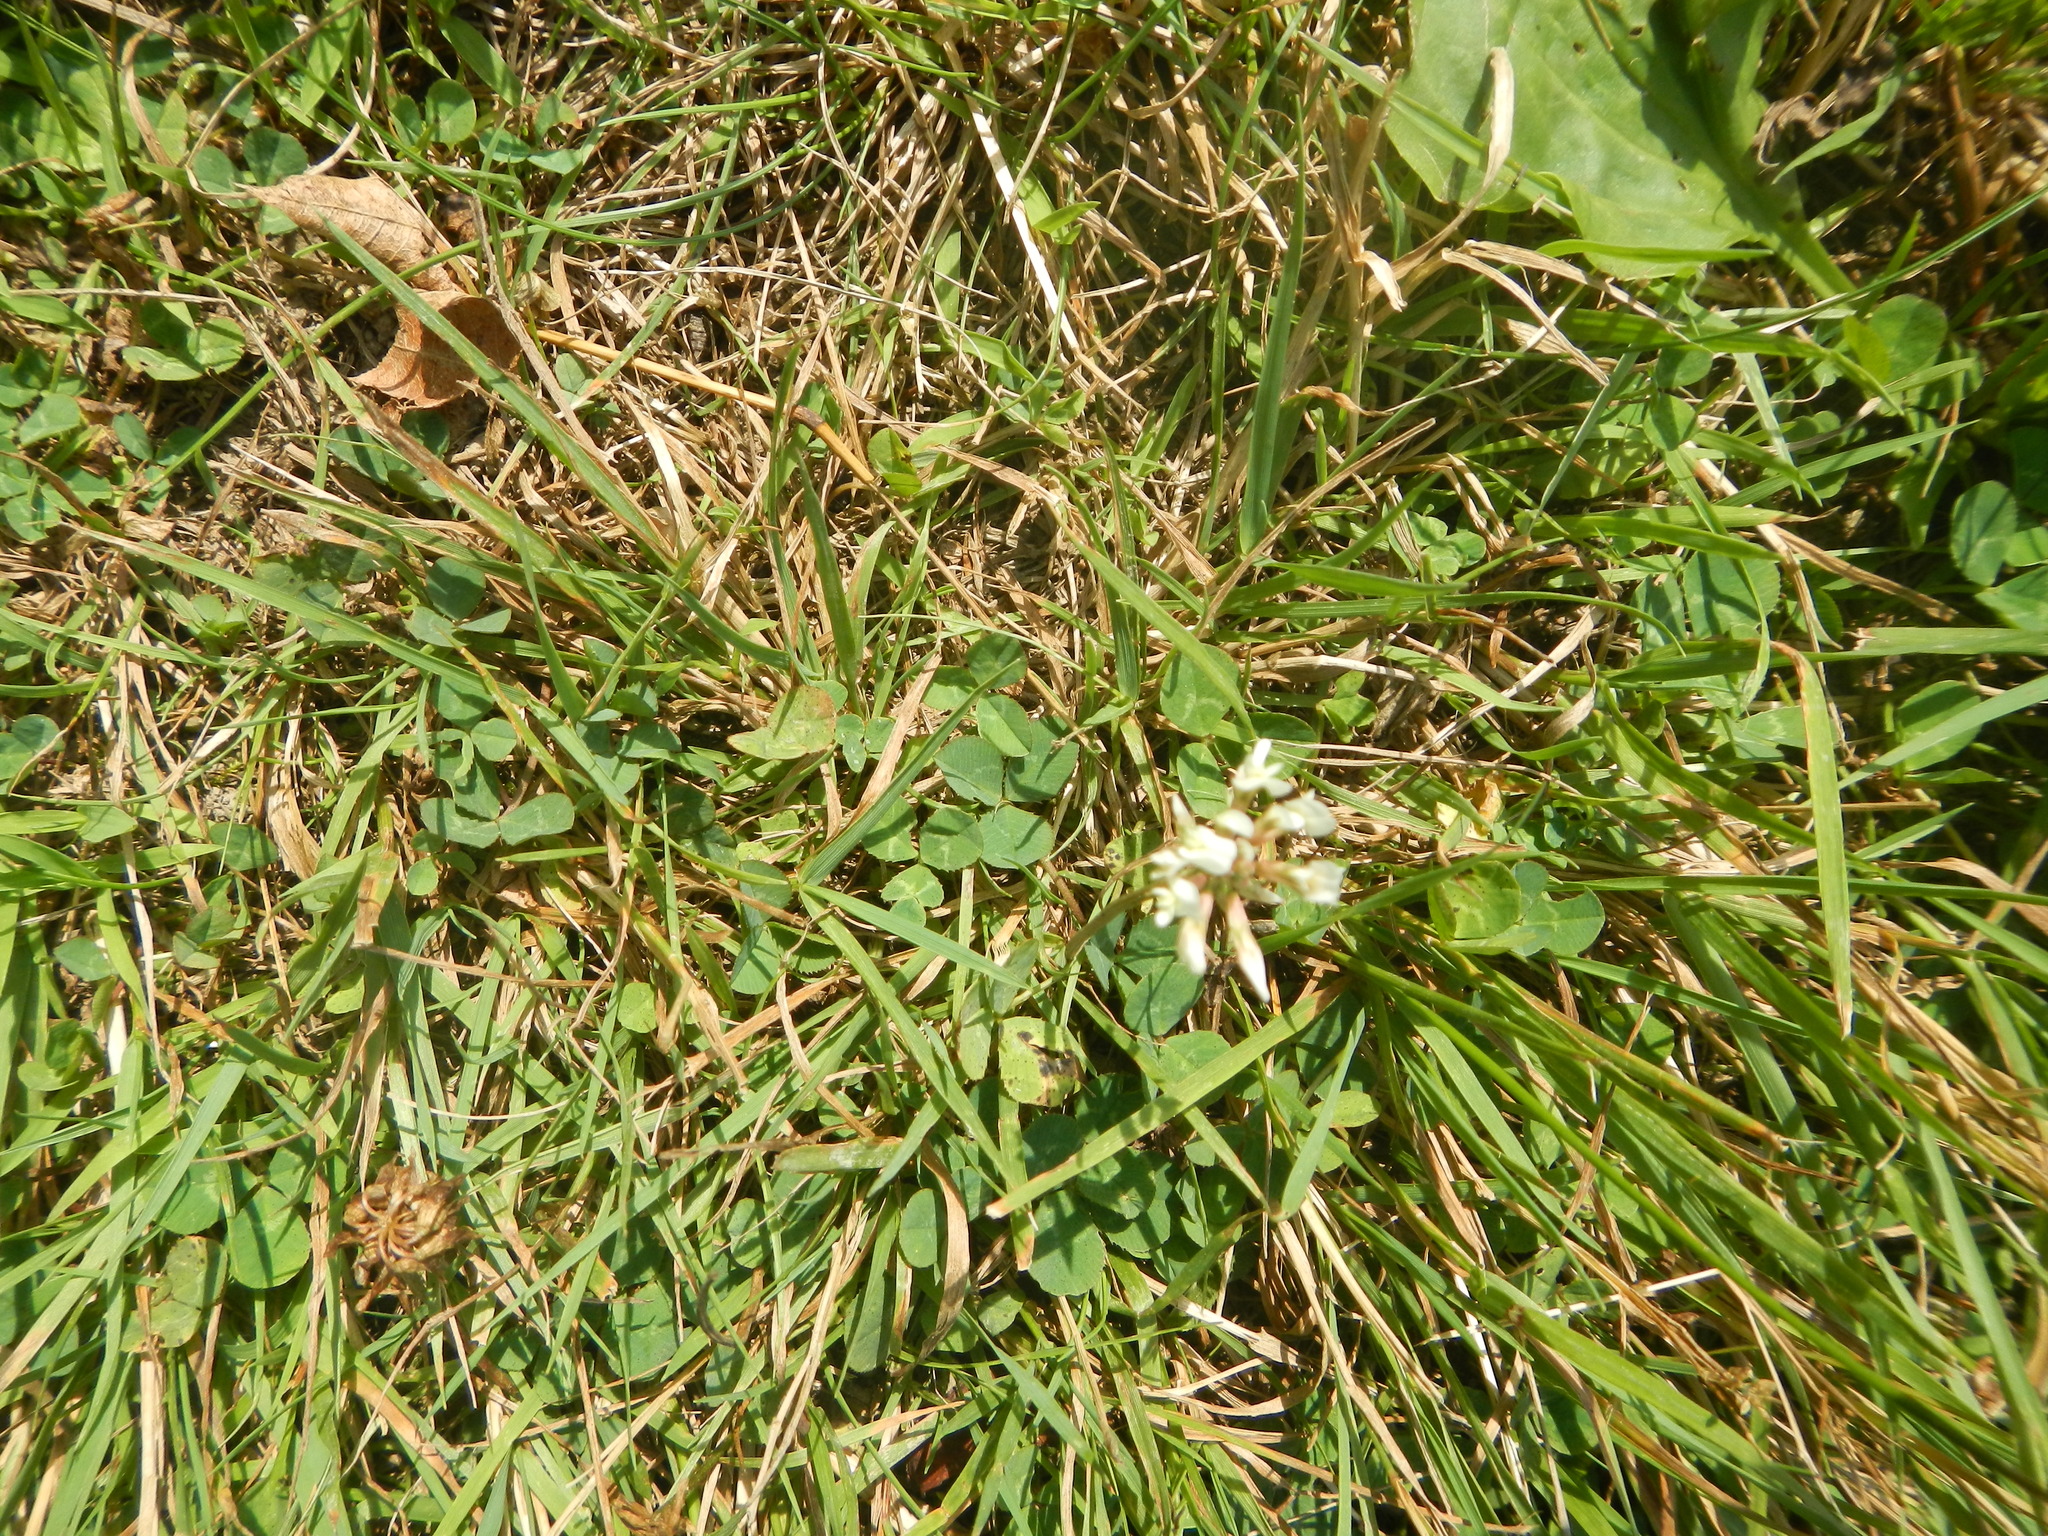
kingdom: Plantae
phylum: Tracheophyta
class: Magnoliopsida
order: Fabales
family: Fabaceae
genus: Trifolium
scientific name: Trifolium repens
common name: White clover
